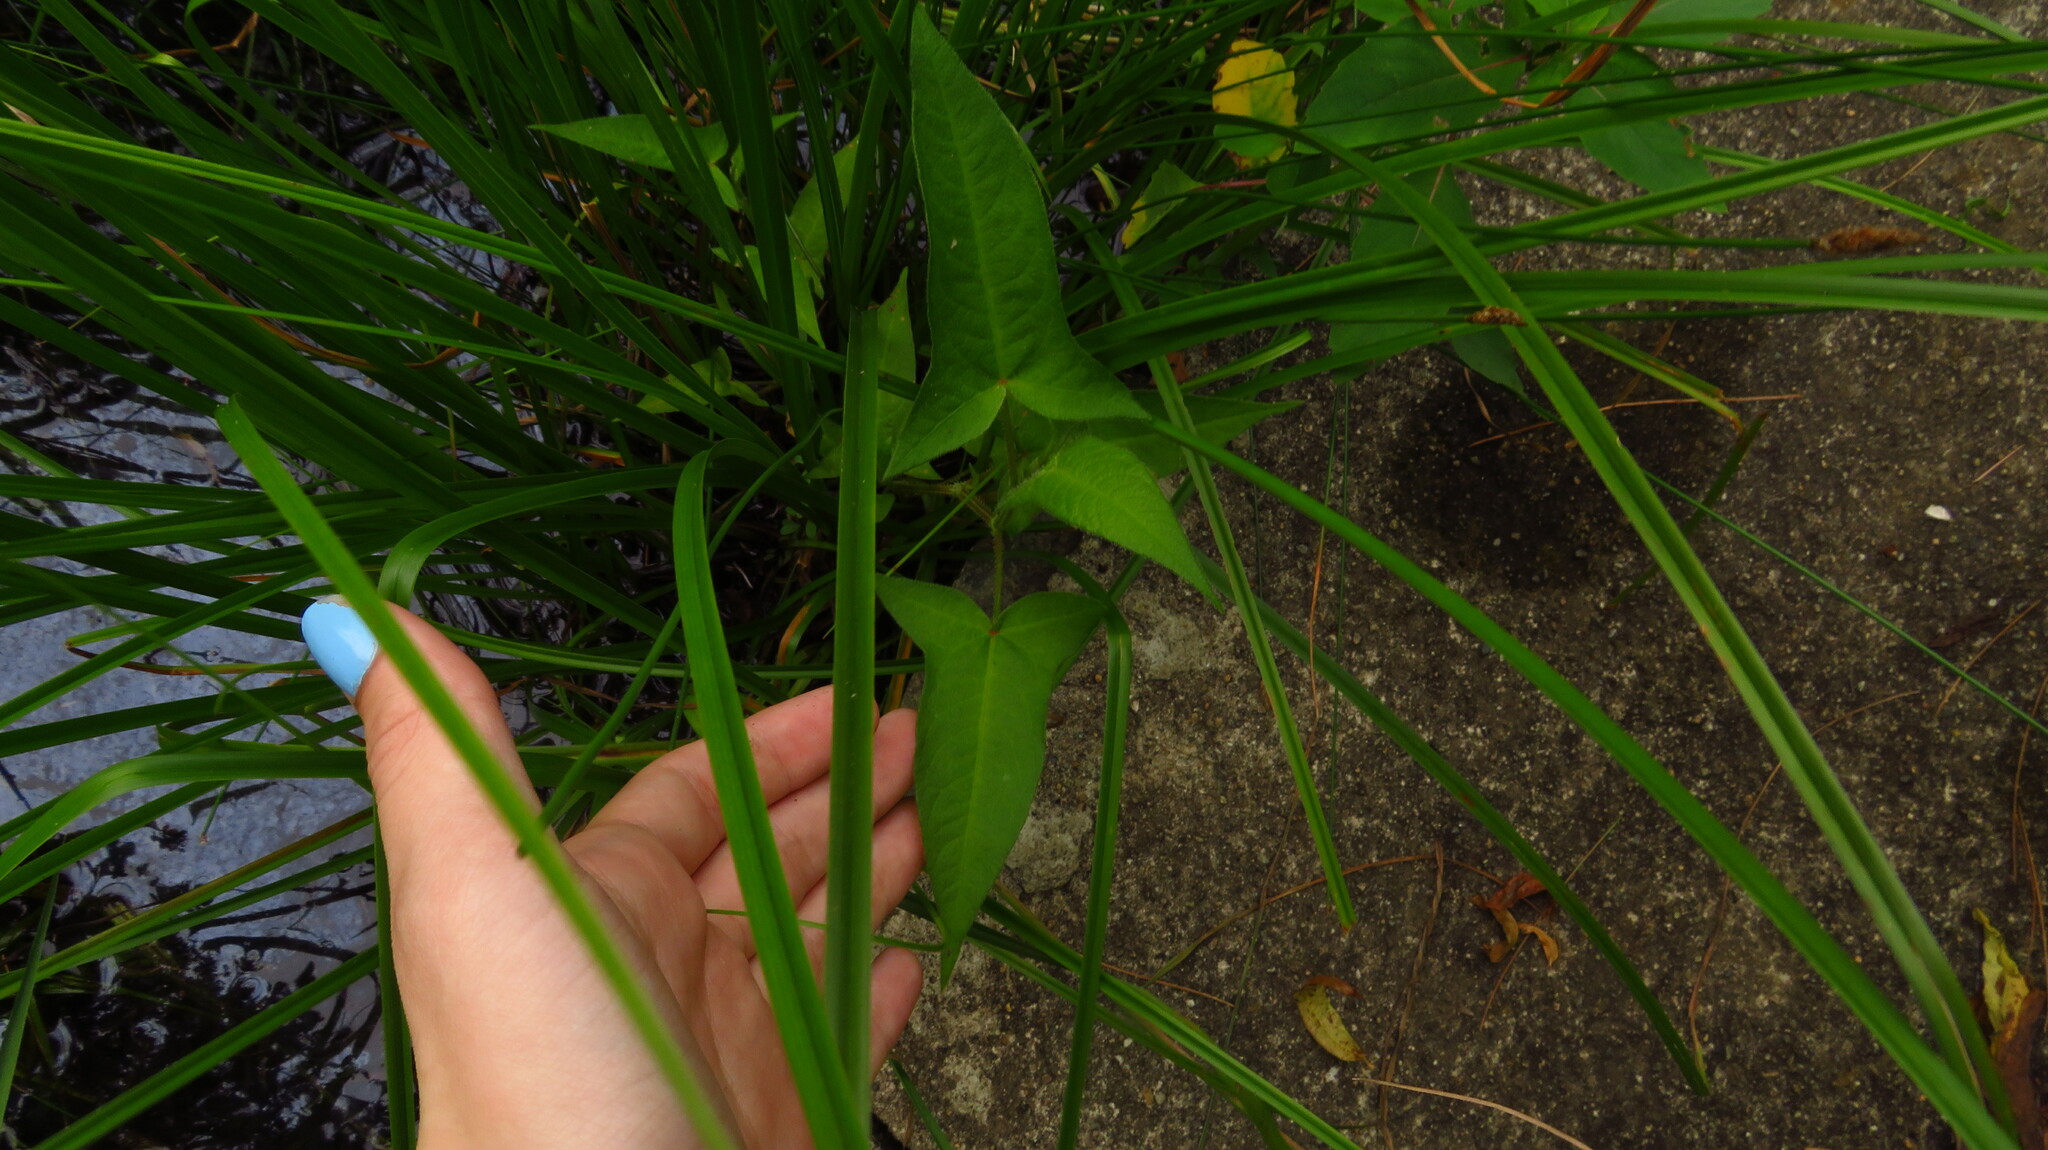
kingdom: Plantae
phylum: Tracheophyta
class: Magnoliopsida
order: Caryophyllales
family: Polygonaceae
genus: Persicaria
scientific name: Persicaria arifolia
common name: Halberd-leaved tear-thumb
